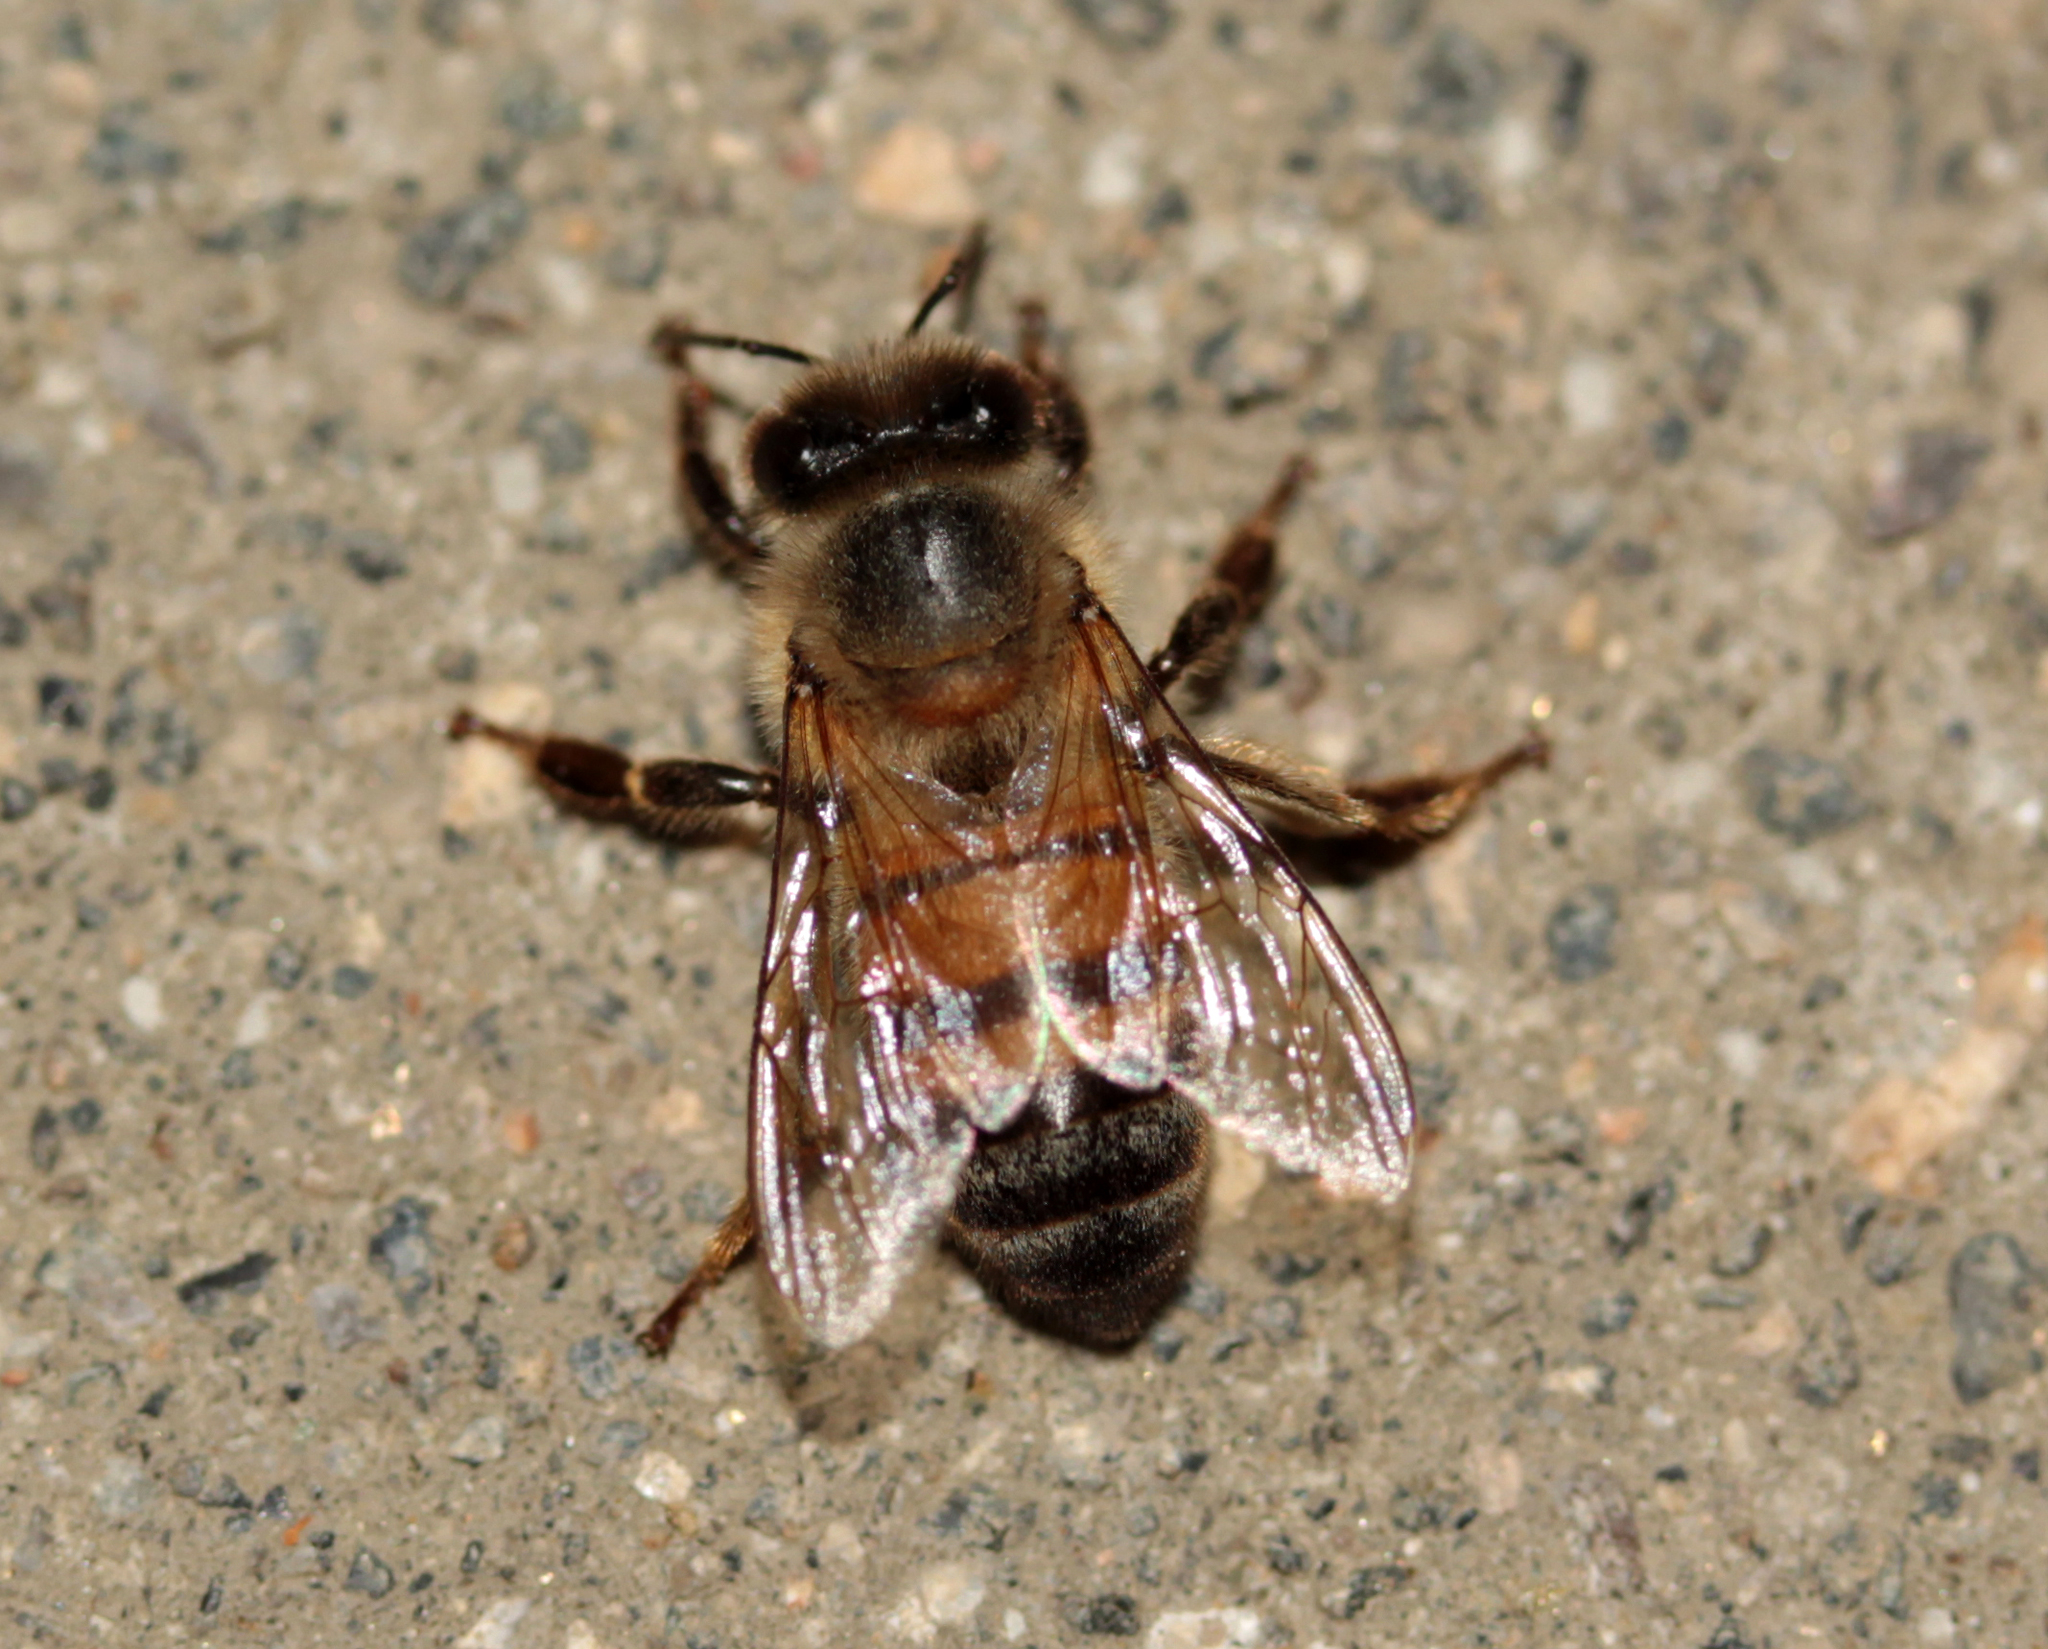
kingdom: Animalia
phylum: Arthropoda
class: Insecta
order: Hymenoptera
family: Apidae
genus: Apis
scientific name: Apis mellifera
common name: Honey bee
